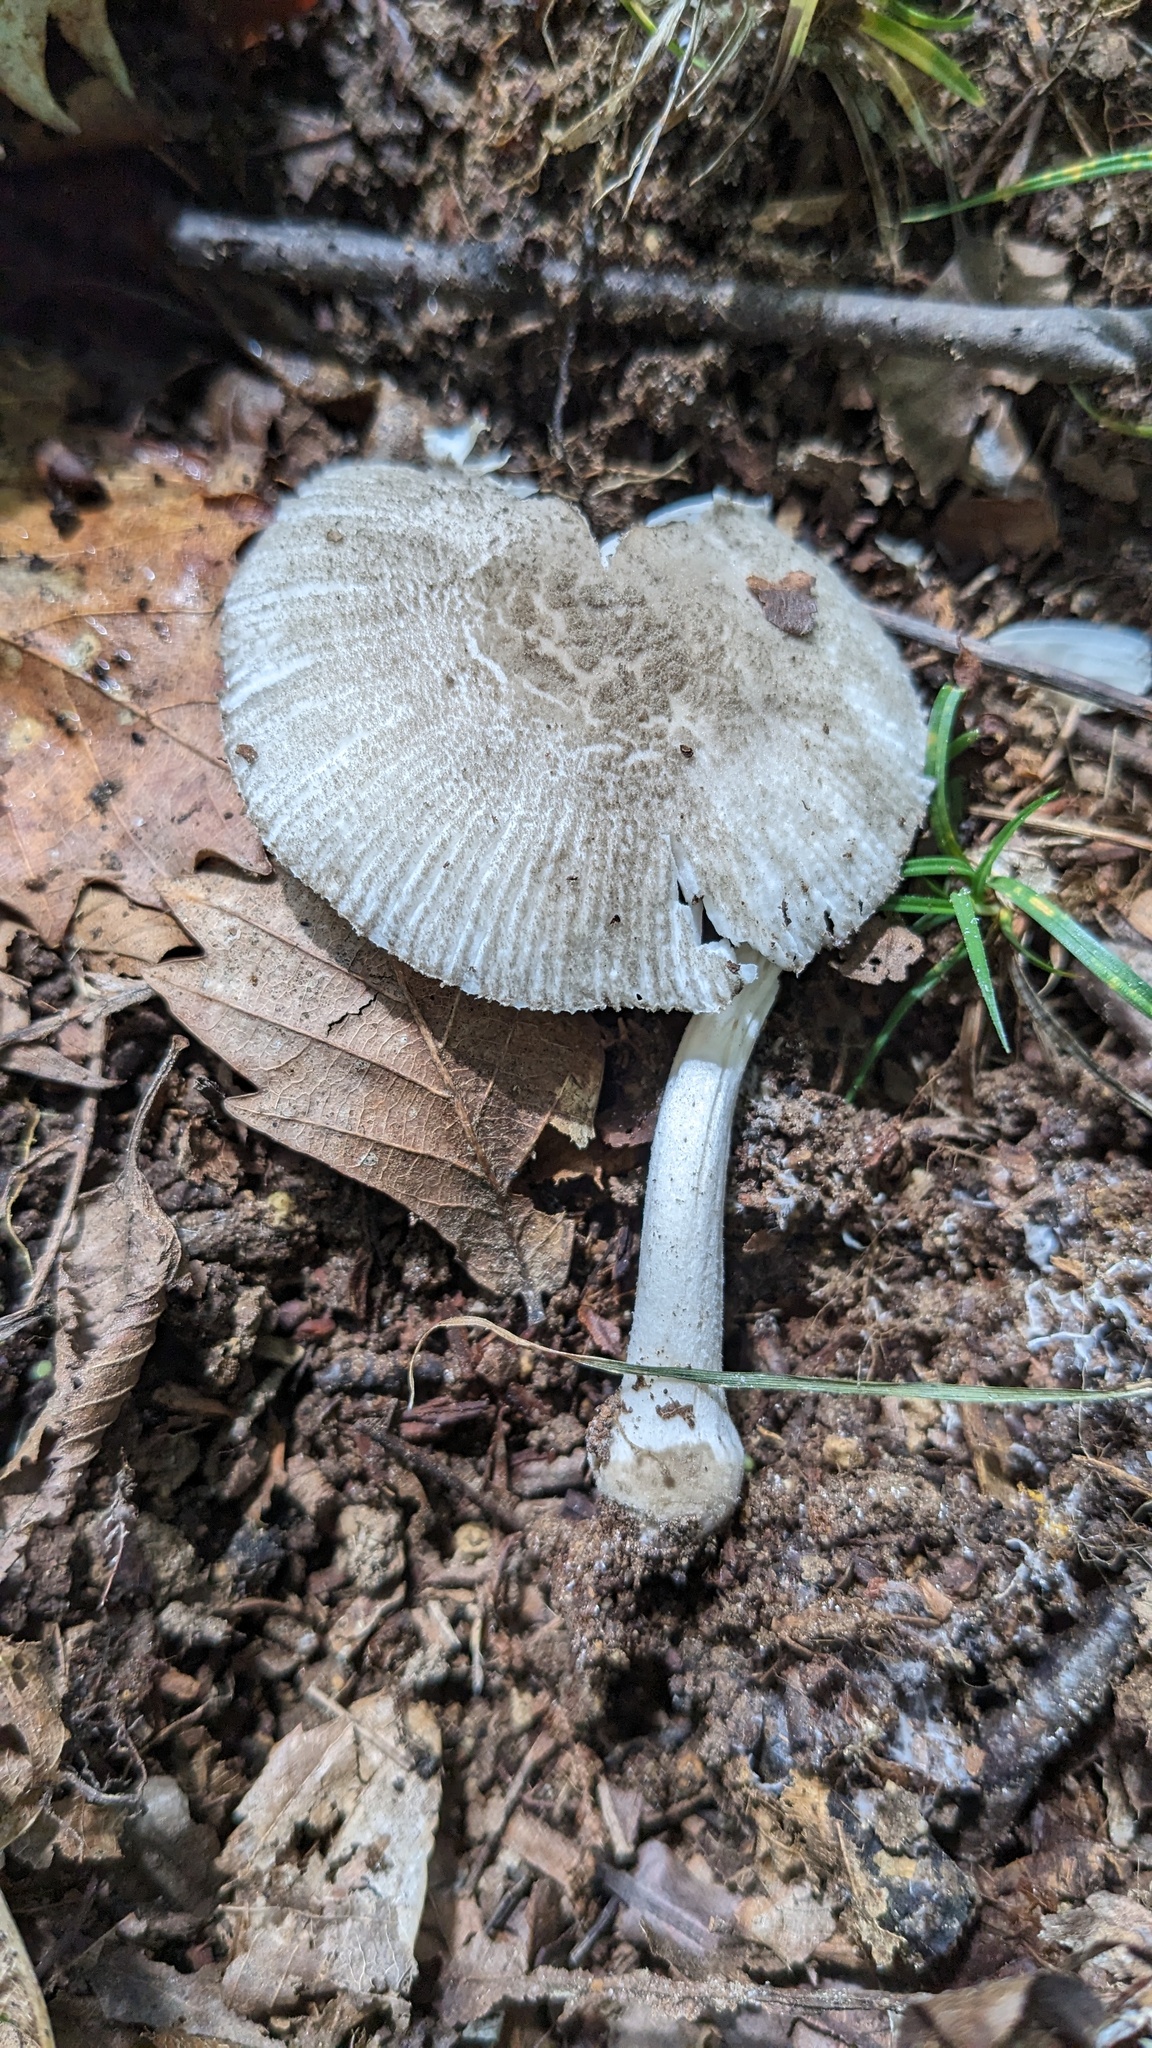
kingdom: Fungi
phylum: Basidiomycota
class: Agaricomycetes
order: Agaricales
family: Amanitaceae
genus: Amanita
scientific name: Amanita farinosa
